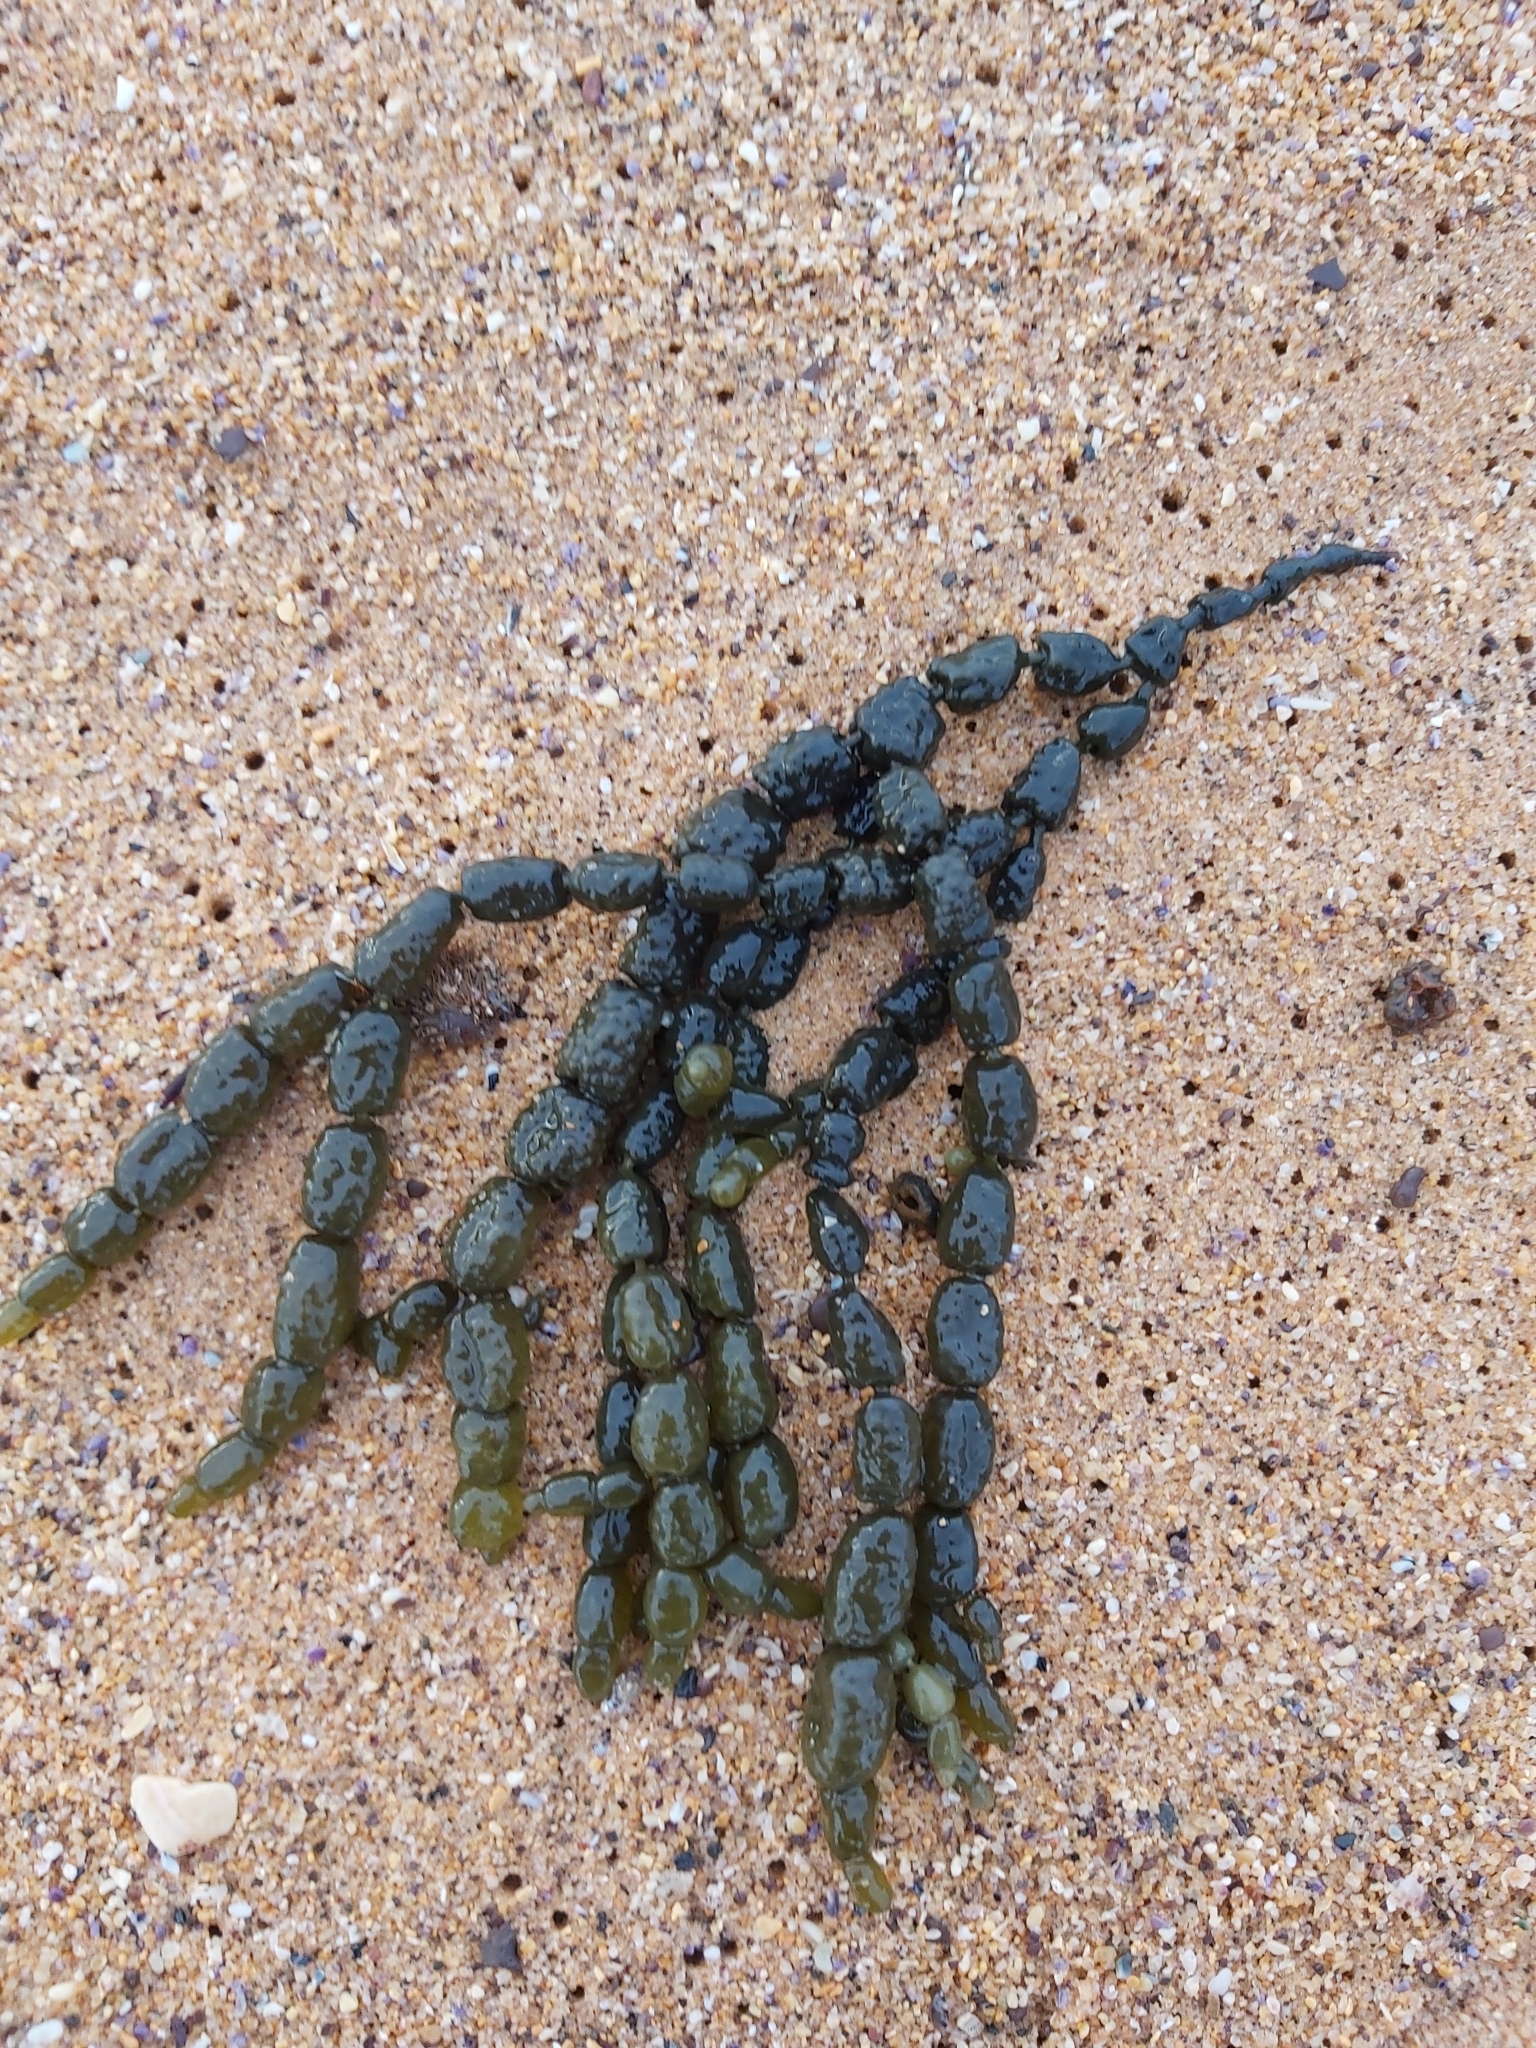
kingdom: Chromista
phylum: Ochrophyta
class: Phaeophyceae
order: Fucales
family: Hormosiraceae
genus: Hormosira
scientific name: Hormosira banksii
